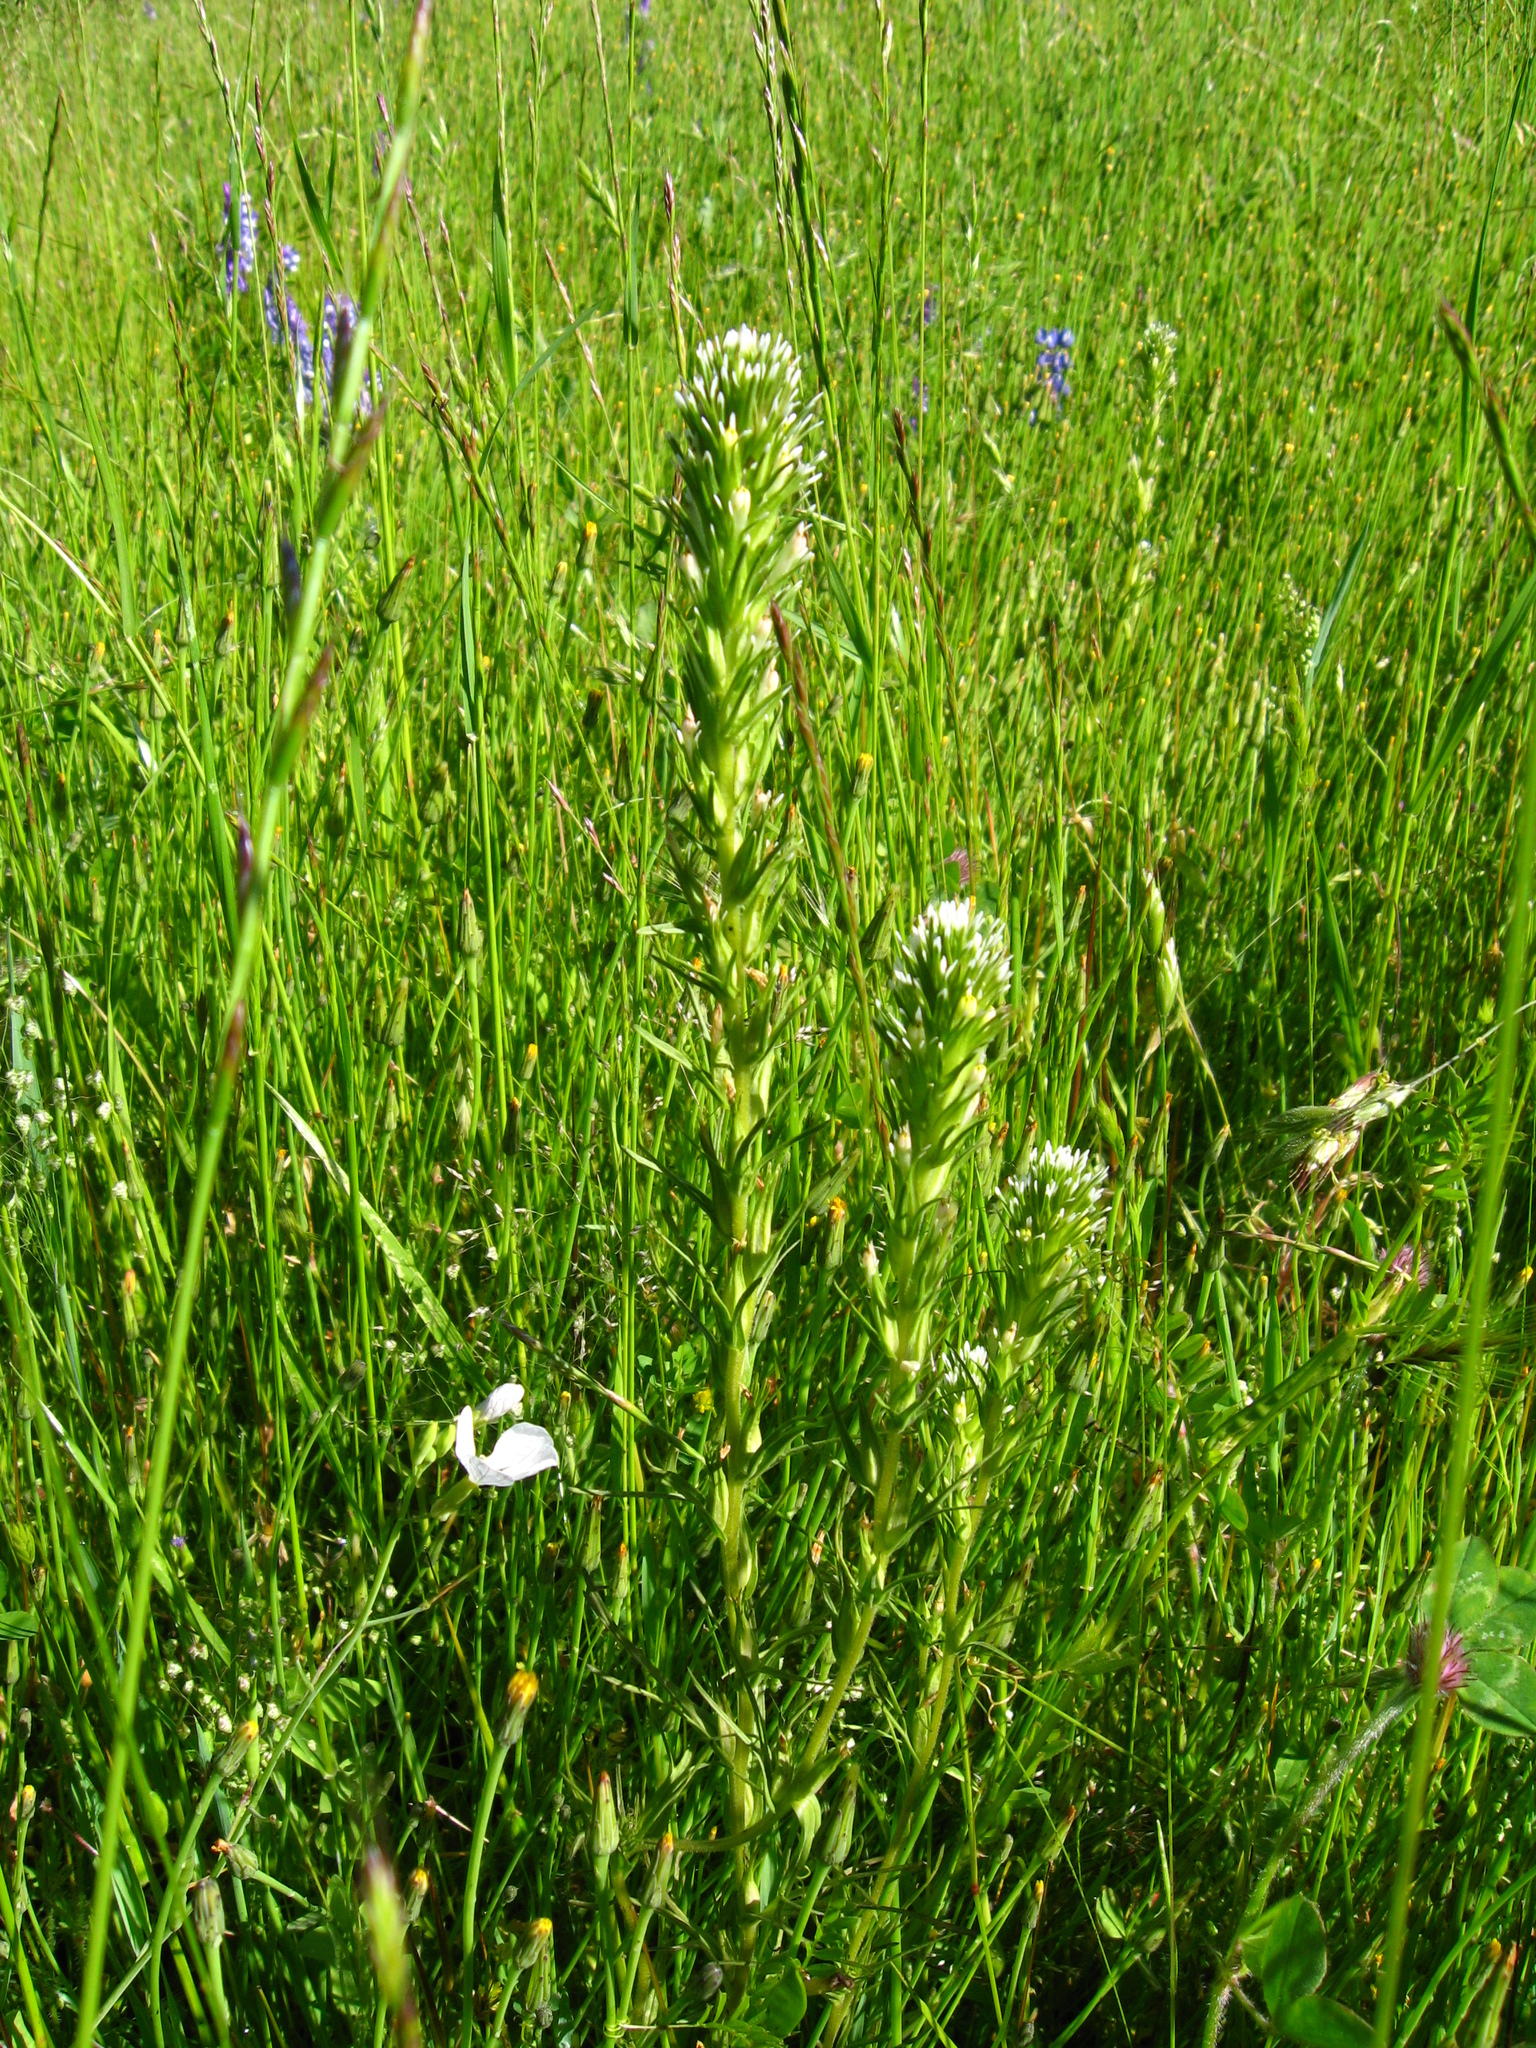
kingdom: Plantae
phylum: Tracheophyta
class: Magnoliopsida
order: Lamiales
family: Orobanchaceae
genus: Castilleja
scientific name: Castilleja attenuata
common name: Valley tassels
